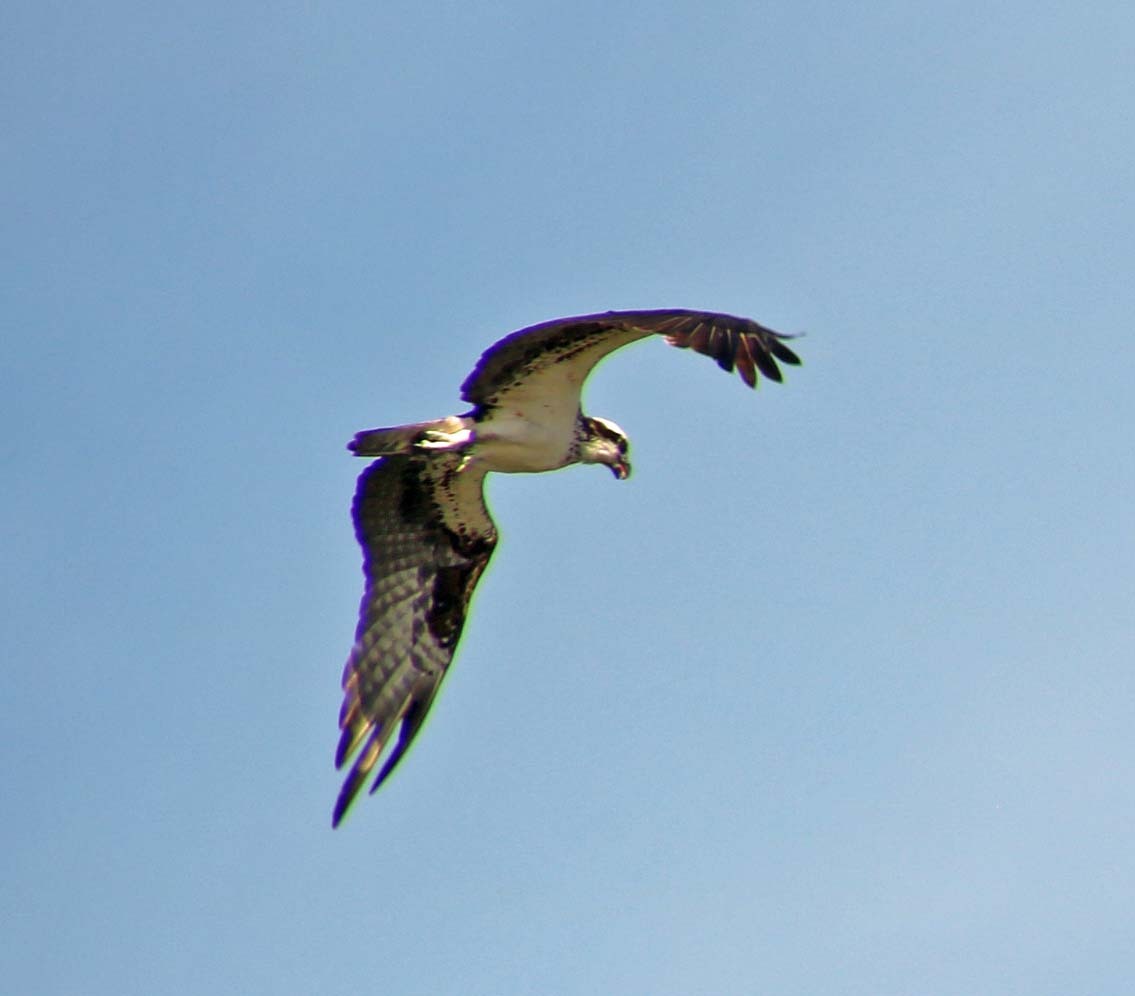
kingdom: Animalia
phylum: Chordata
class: Aves
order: Accipitriformes
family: Pandionidae
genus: Pandion
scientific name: Pandion haliaetus
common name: Osprey
